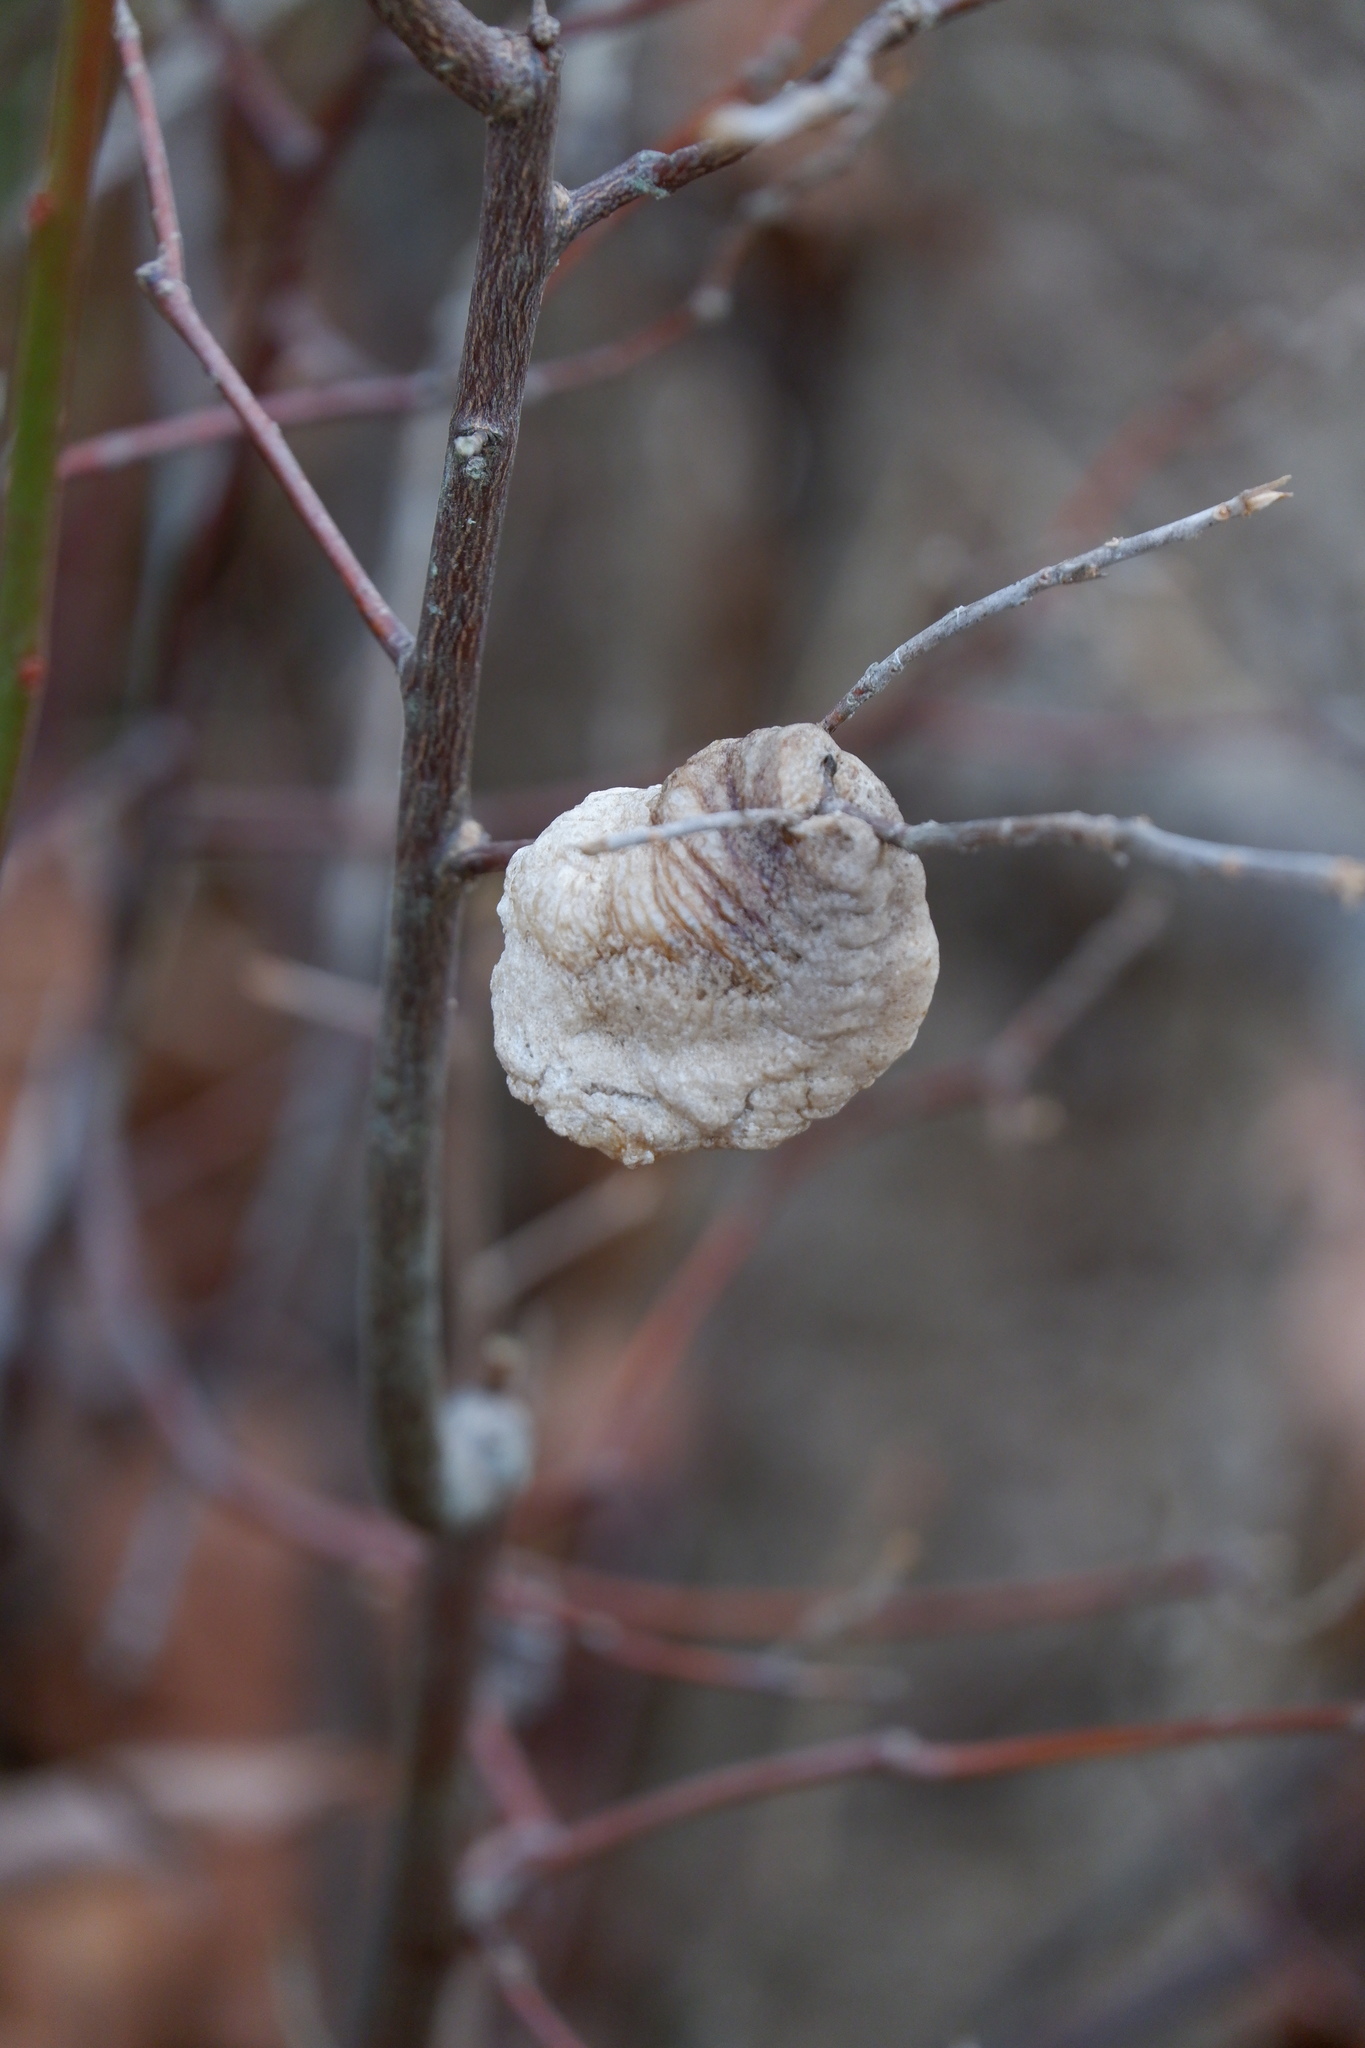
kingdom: Animalia
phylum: Arthropoda
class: Insecta
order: Mantodea
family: Mantidae
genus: Tenodera
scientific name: Tenodera sinensis
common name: Chinese mantis
